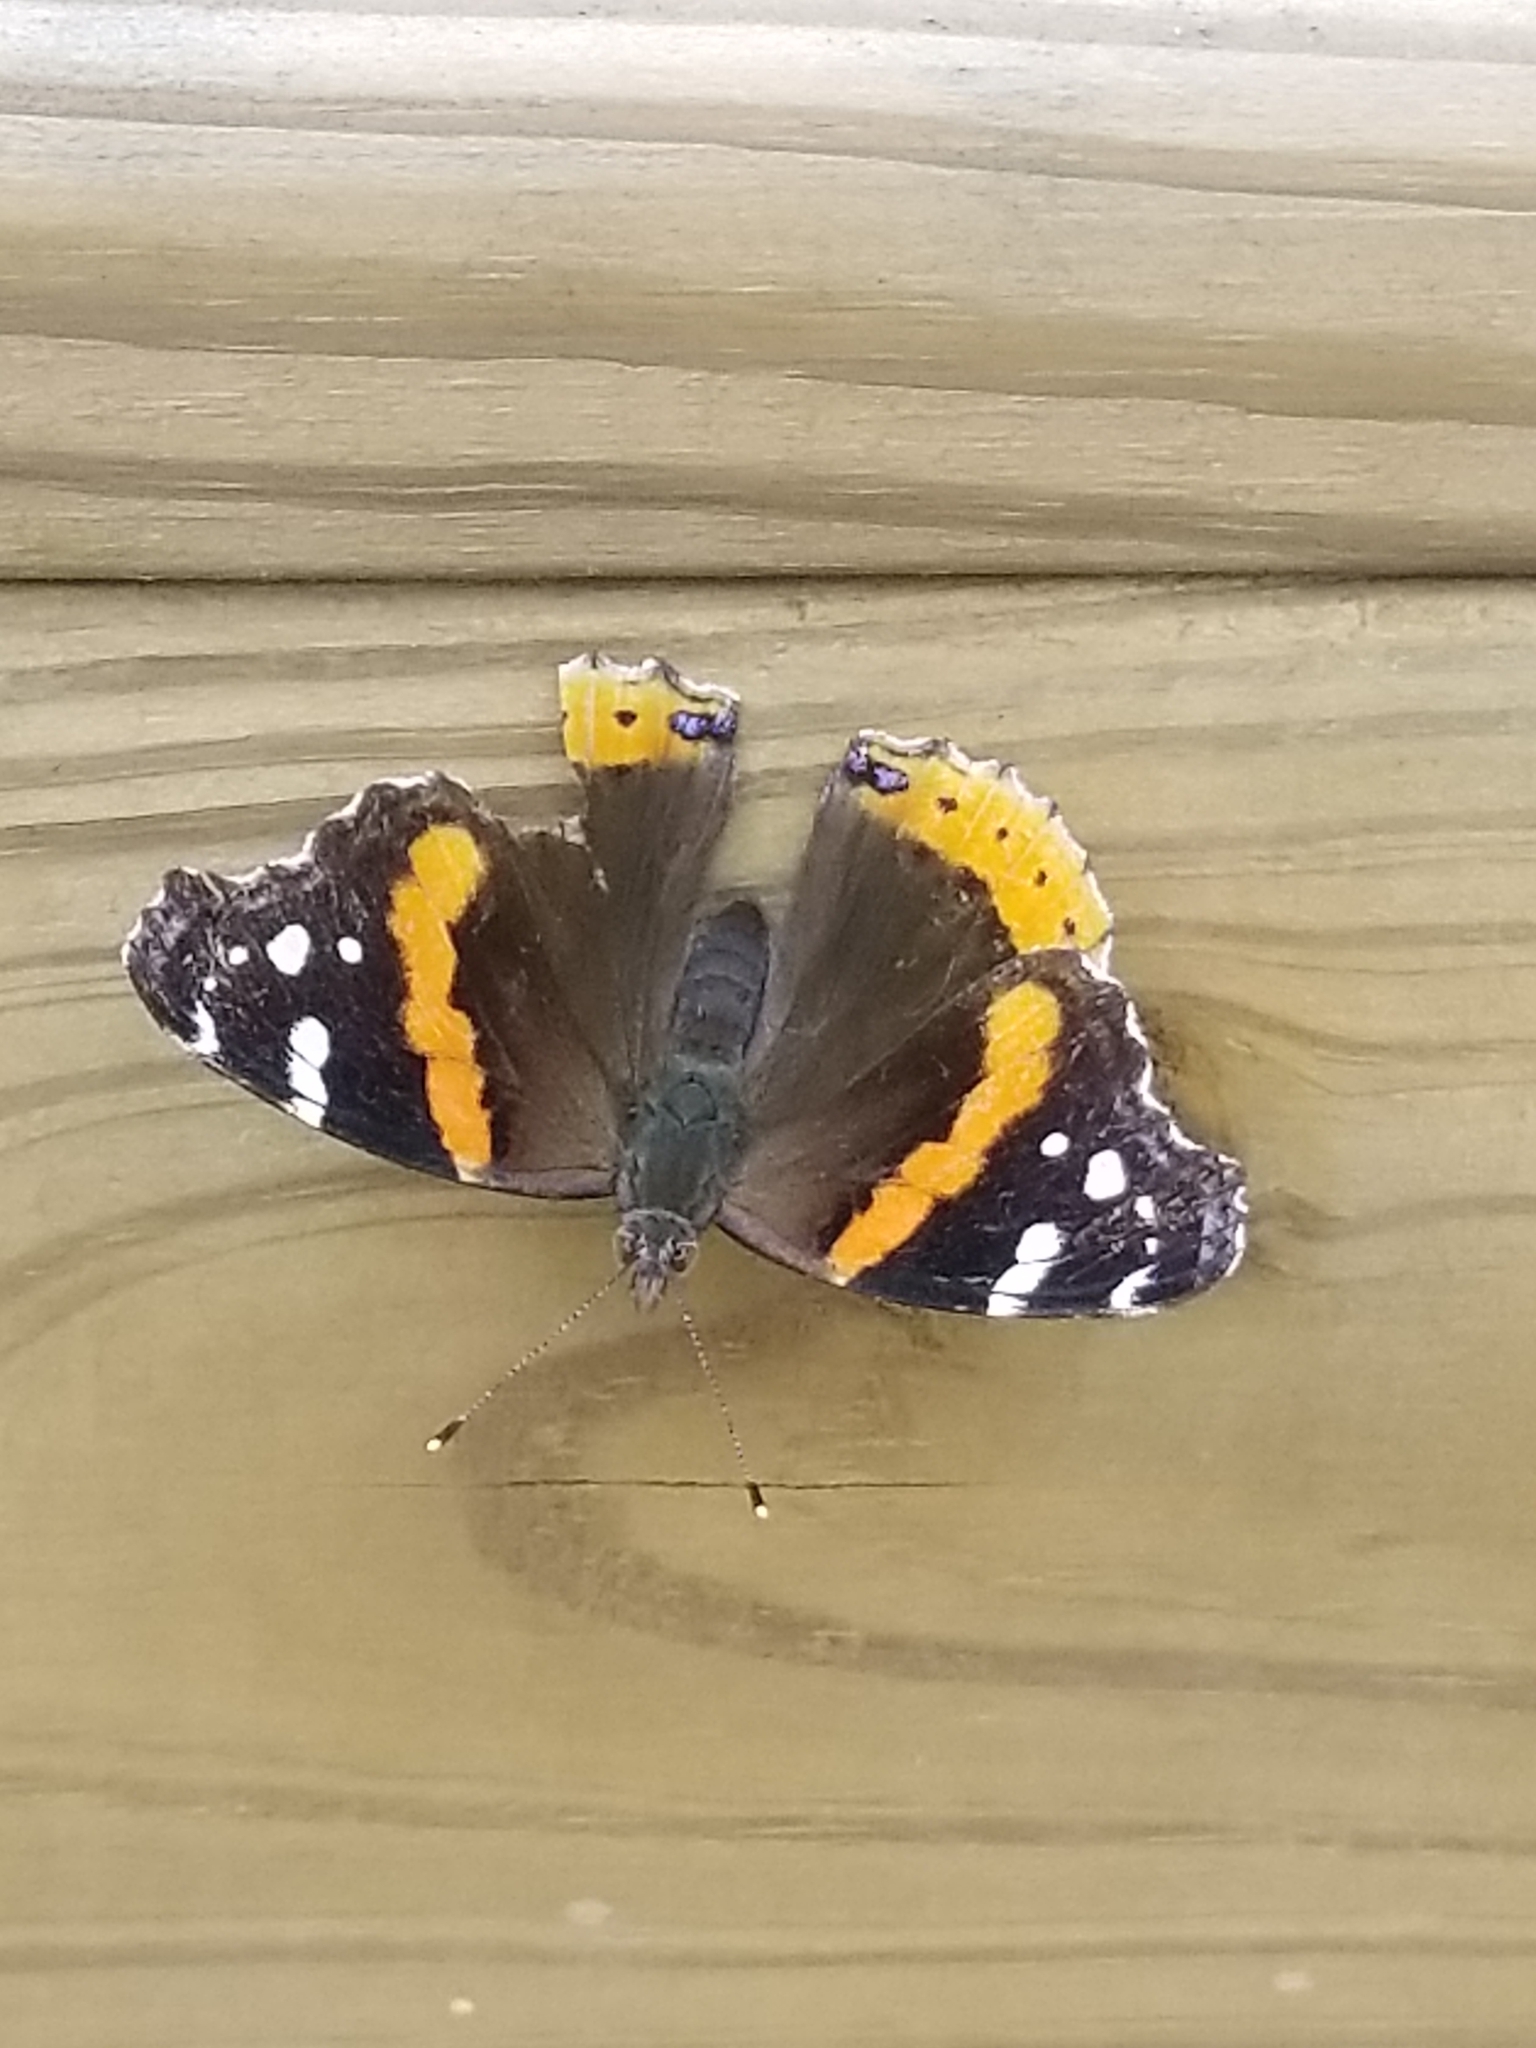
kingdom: Animalia
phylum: Arthropoda
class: Insecta
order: Lepidoptera
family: Nymphalidae
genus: Vanessa
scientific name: Vanessa atalanta
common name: Red admiral
